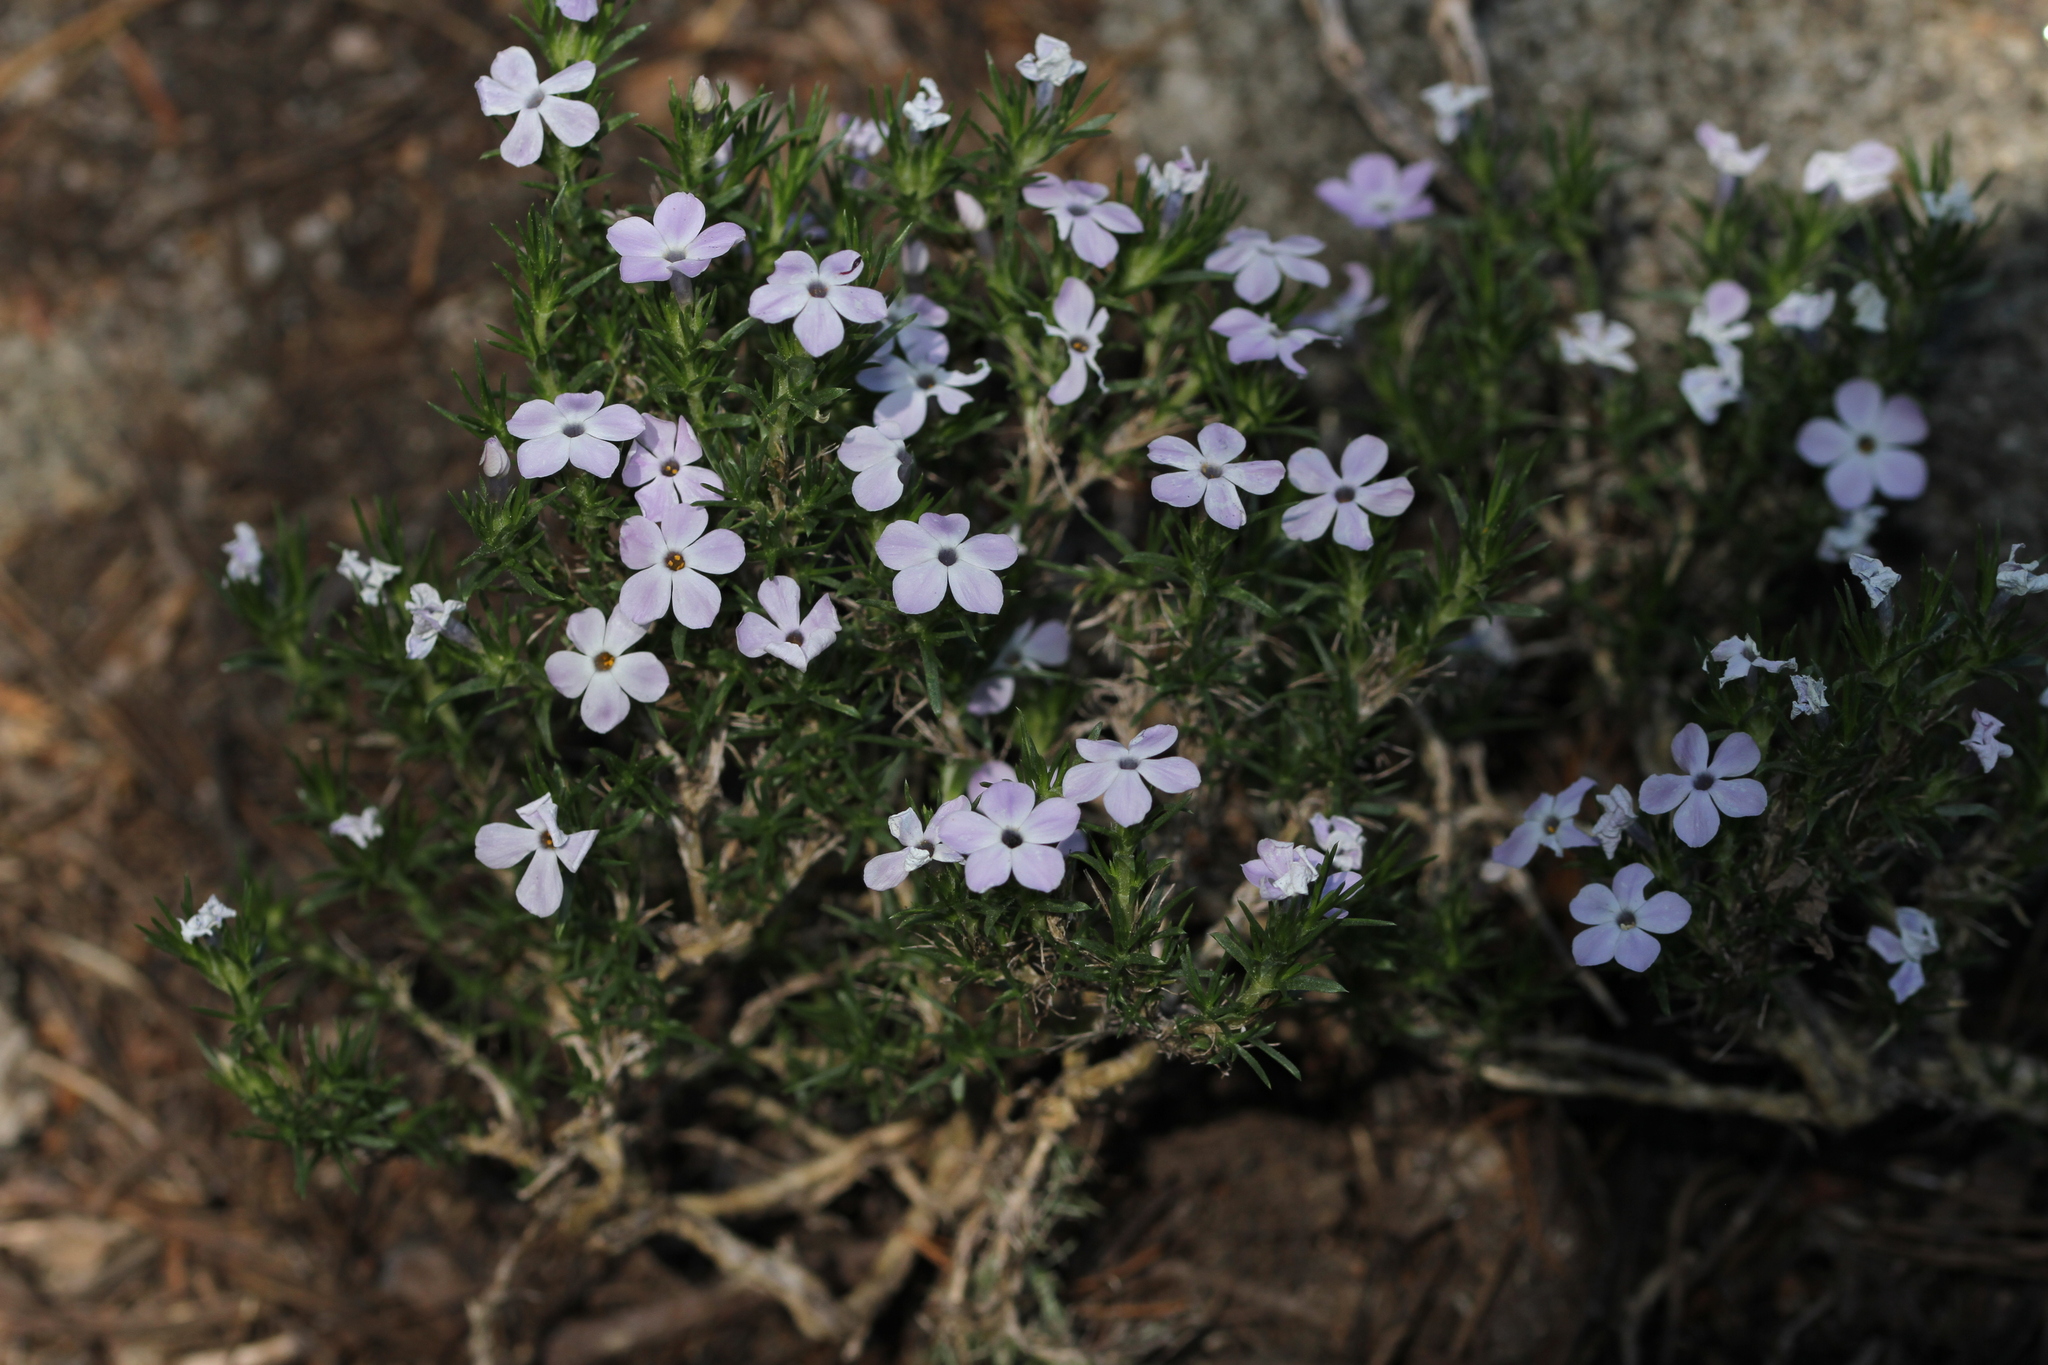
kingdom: Plantae
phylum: Tracheophyta
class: Magnoliopsida
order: Ericales
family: Polemoniaceae
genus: Phlox
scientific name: Phlox diffusa
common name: Mat phlox
